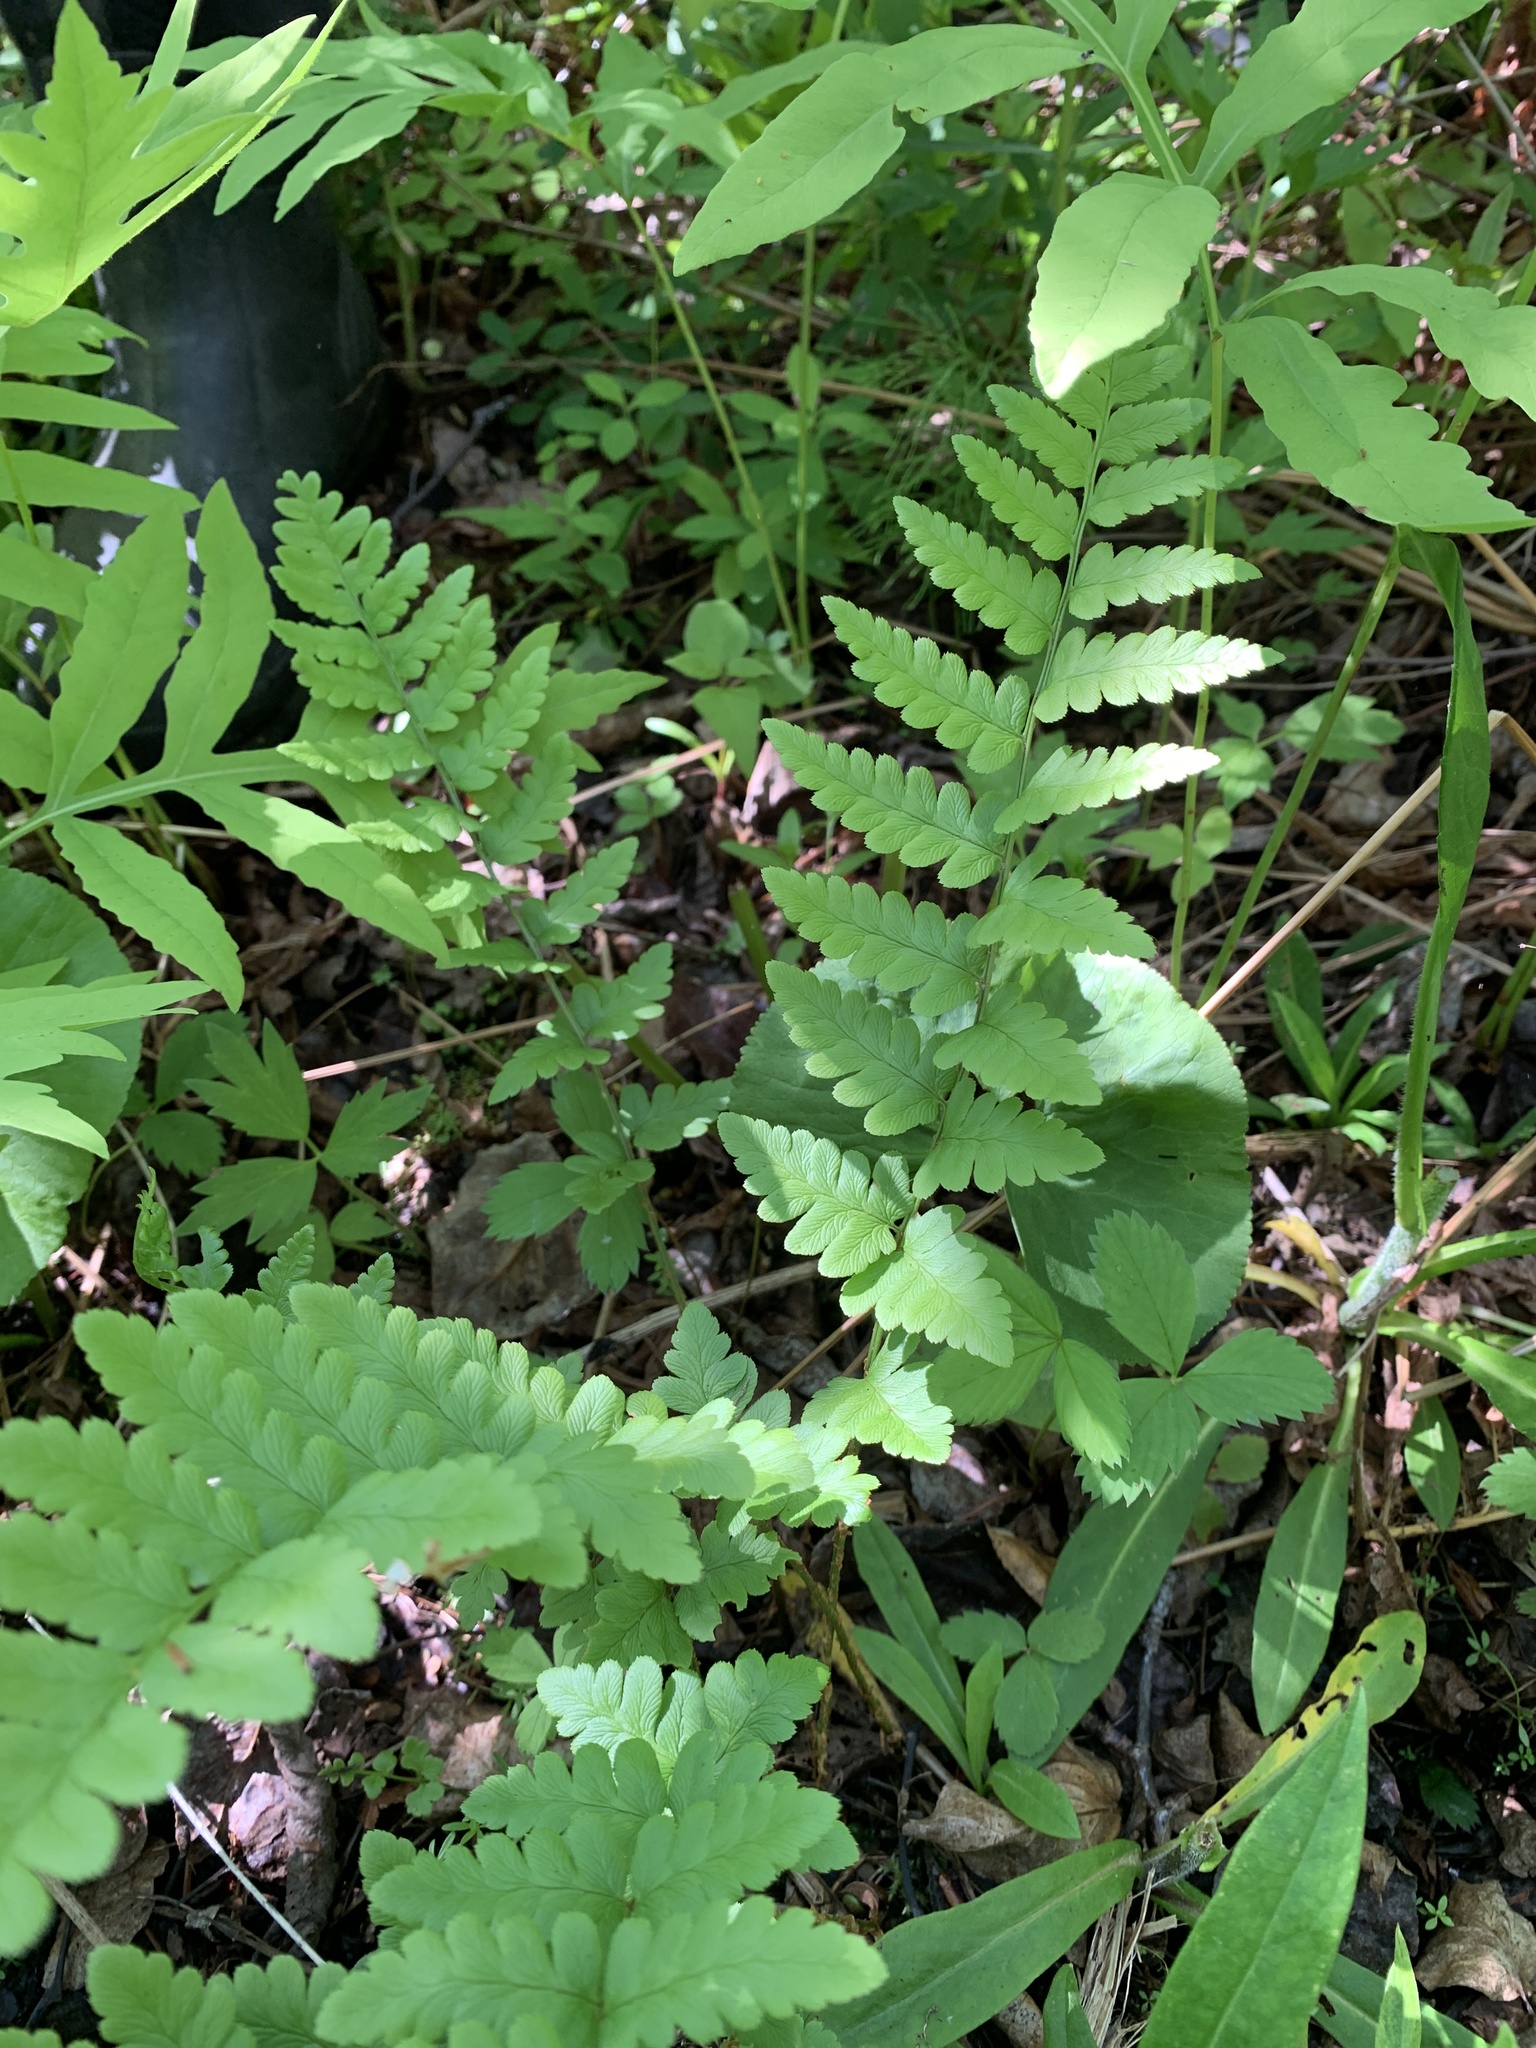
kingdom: Plantae
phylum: Tracheophyta
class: Polypodiopsida
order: Polypodiales
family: Dryopteridaceae
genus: Dryopteris
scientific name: Dryopteris cristata
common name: Crested wood fern
